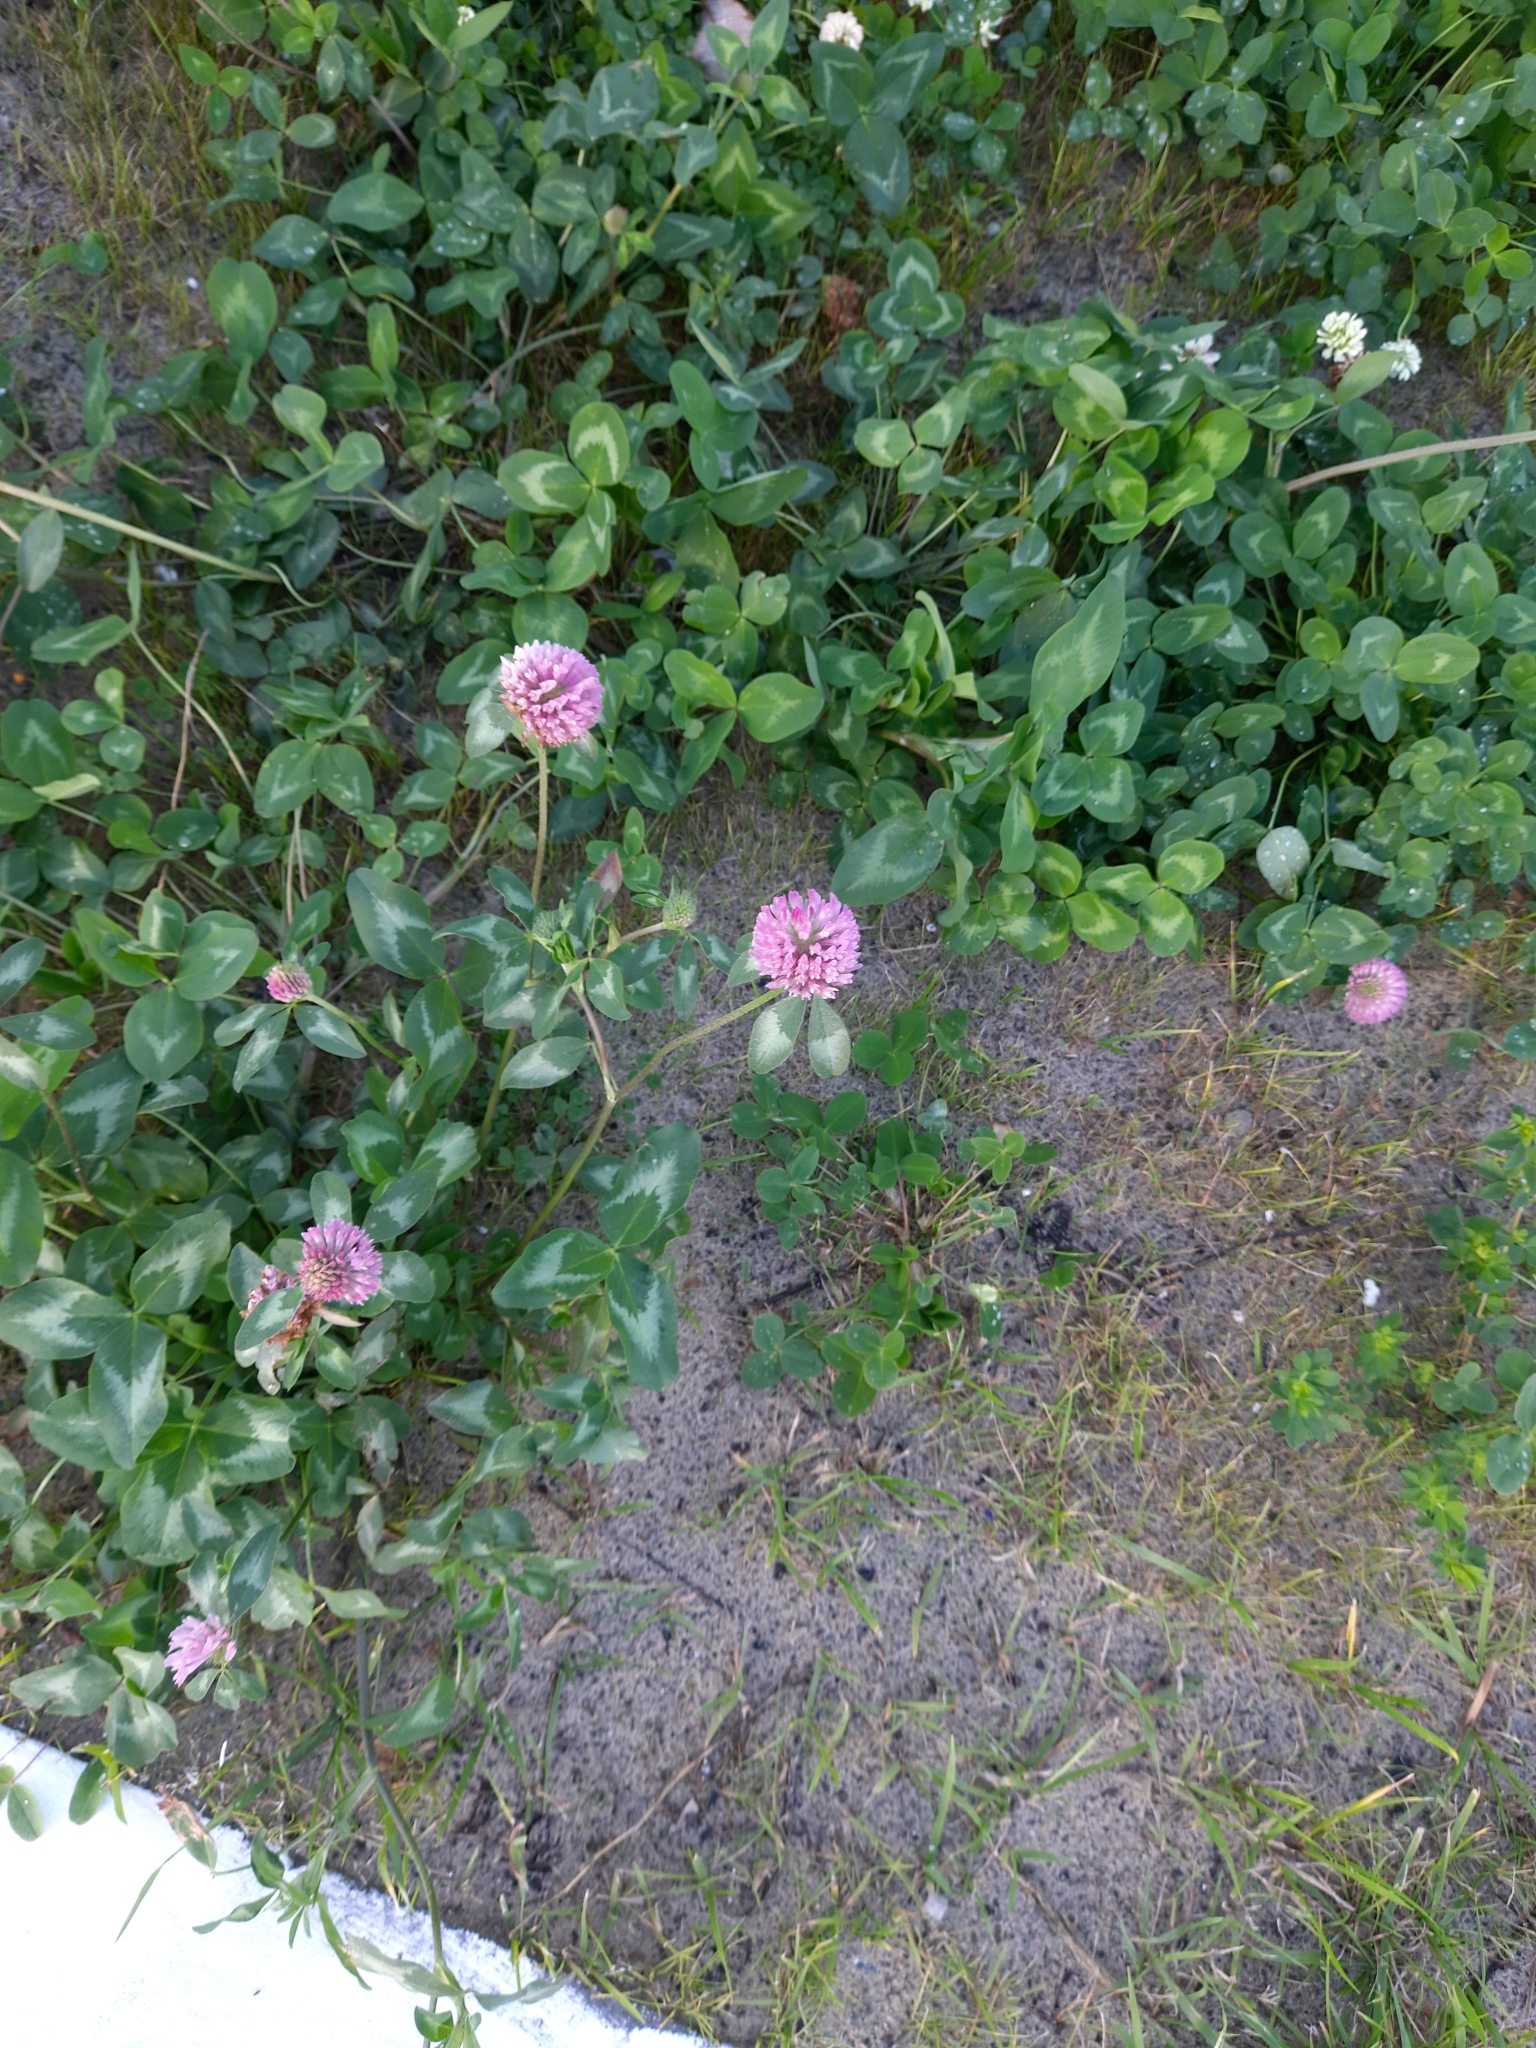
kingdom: Plantae
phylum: Tracheophyta
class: Magnoliopsida
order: Fabales
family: Fabaceae
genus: Trifolium
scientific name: Trifolium pratense
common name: Red clover
